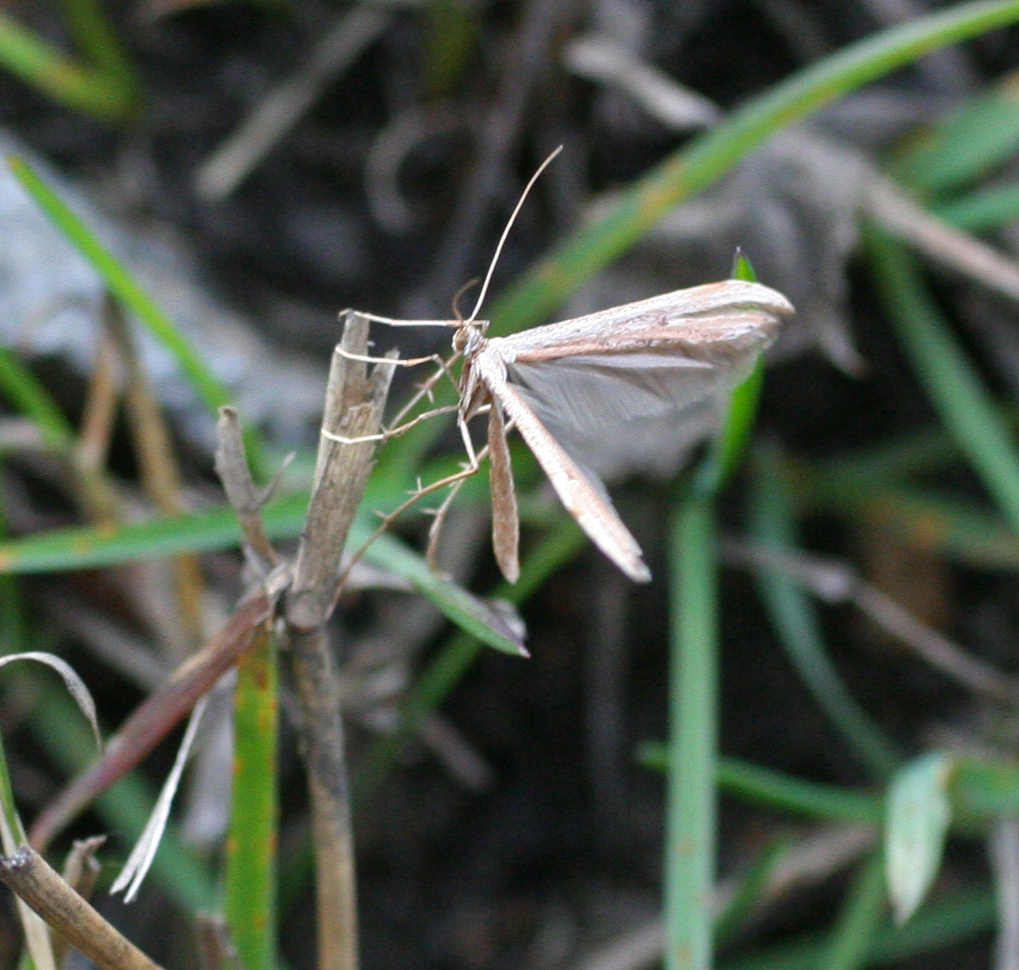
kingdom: Animalia
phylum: Arthropoda
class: Insecta
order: Lepidoptera
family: Pterophoridae
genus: Emmelina
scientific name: Emmelina monodactyla
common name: Common plume
